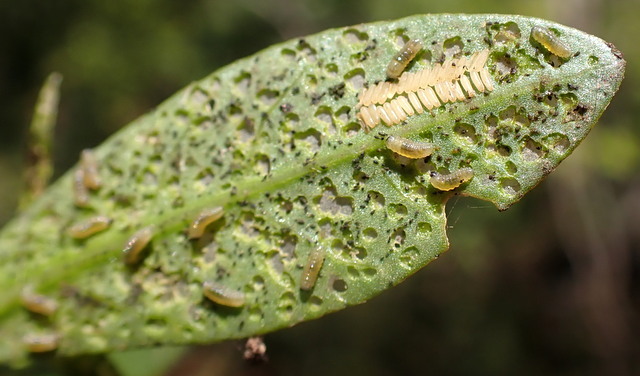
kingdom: Animalia
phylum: Arthropoda
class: Insecta
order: Coleoptera
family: Chrysomelidae
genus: Agasicles
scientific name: Agasicles hygrophila
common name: Alligatorweed flea beetle
